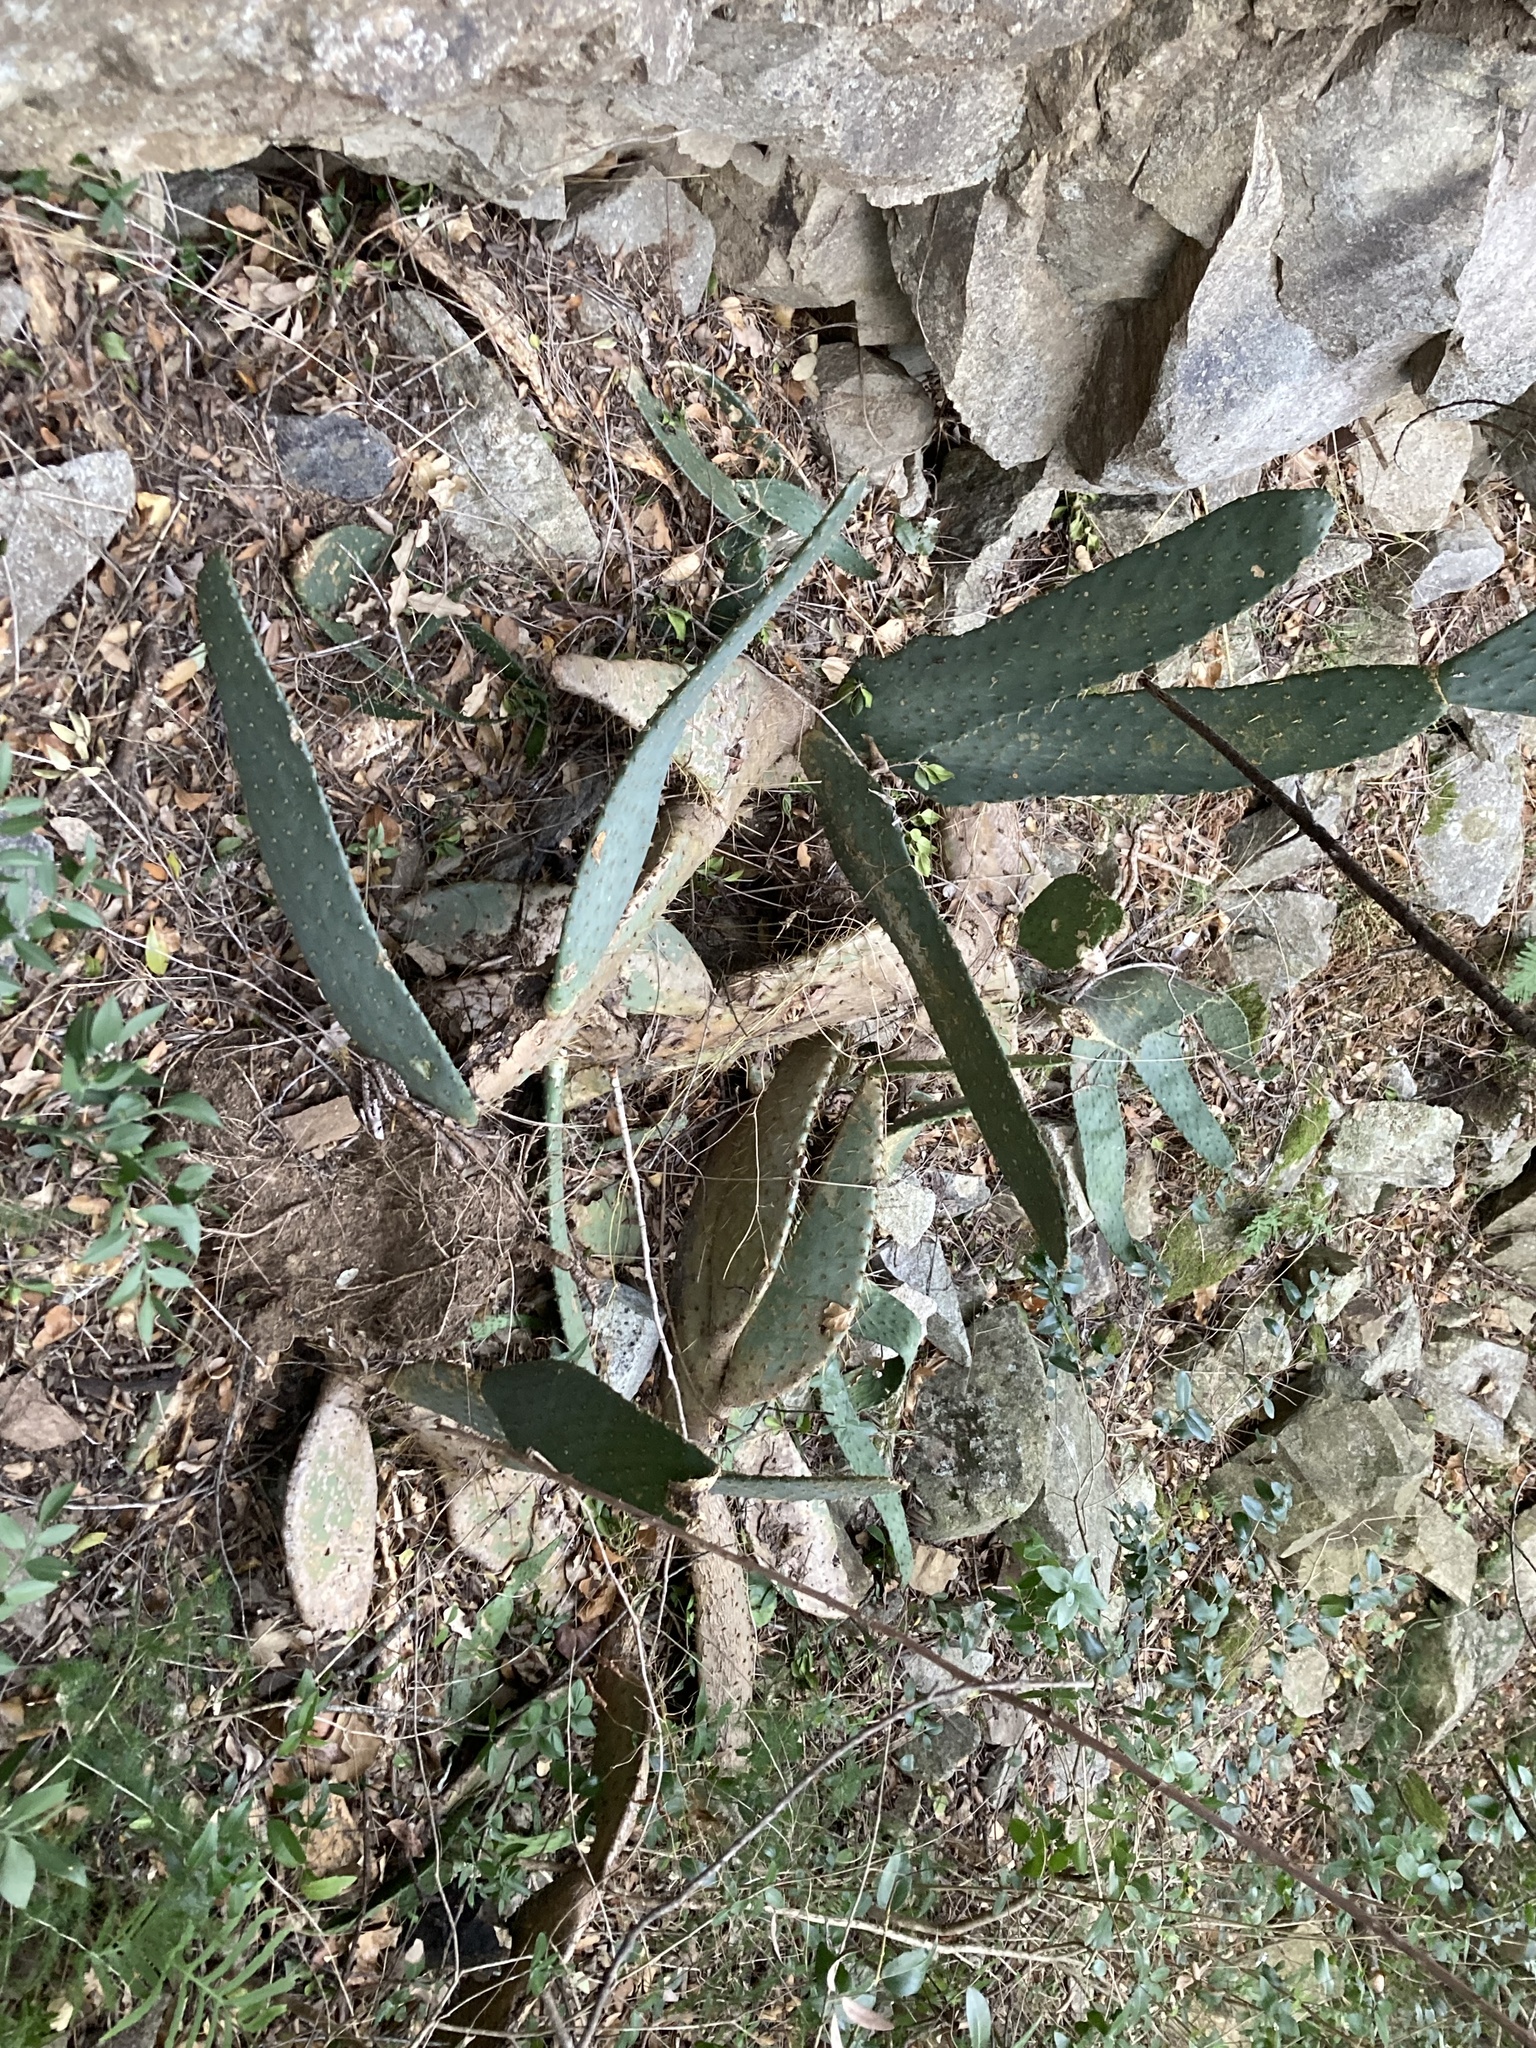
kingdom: Plantae
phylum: Tracheophyta
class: Magnoliopsida
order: Caryophyllales
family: Cactaceae
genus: Opuntia
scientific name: Opuntia engelmannii
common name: Cactus-apple
